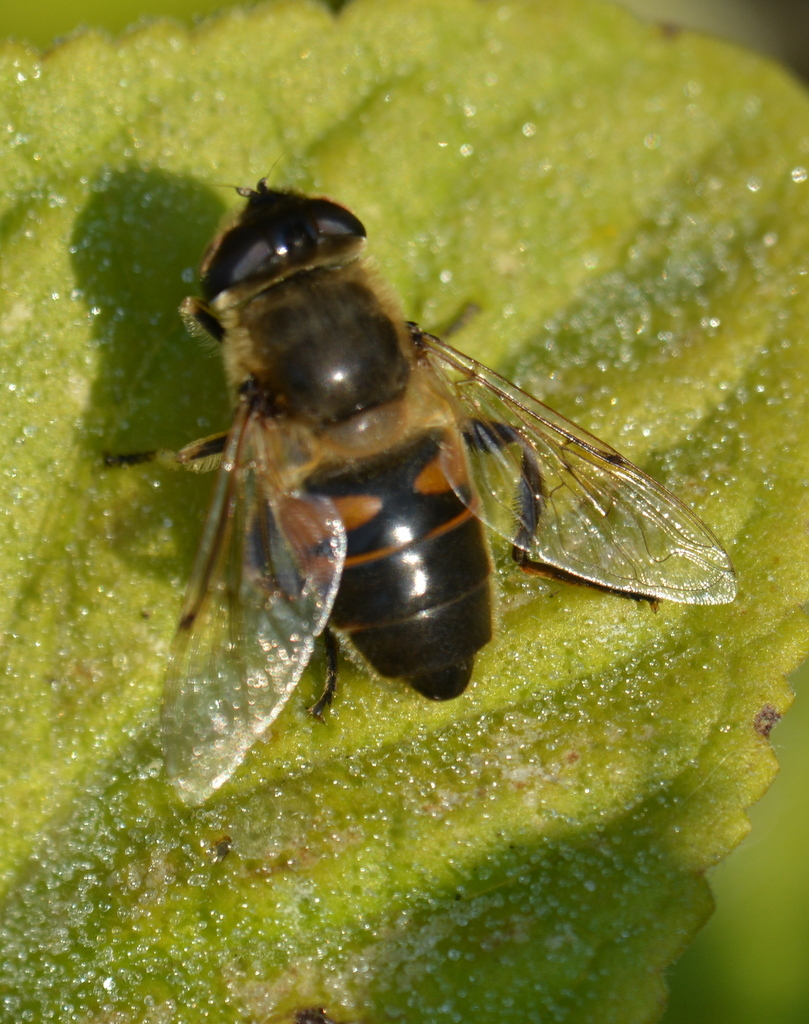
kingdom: Animalia
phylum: Arthropoda
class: Insecta
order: Diptera
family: Syrphidae
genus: Eristalis
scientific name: Eristalis tenax
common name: Drone fly
